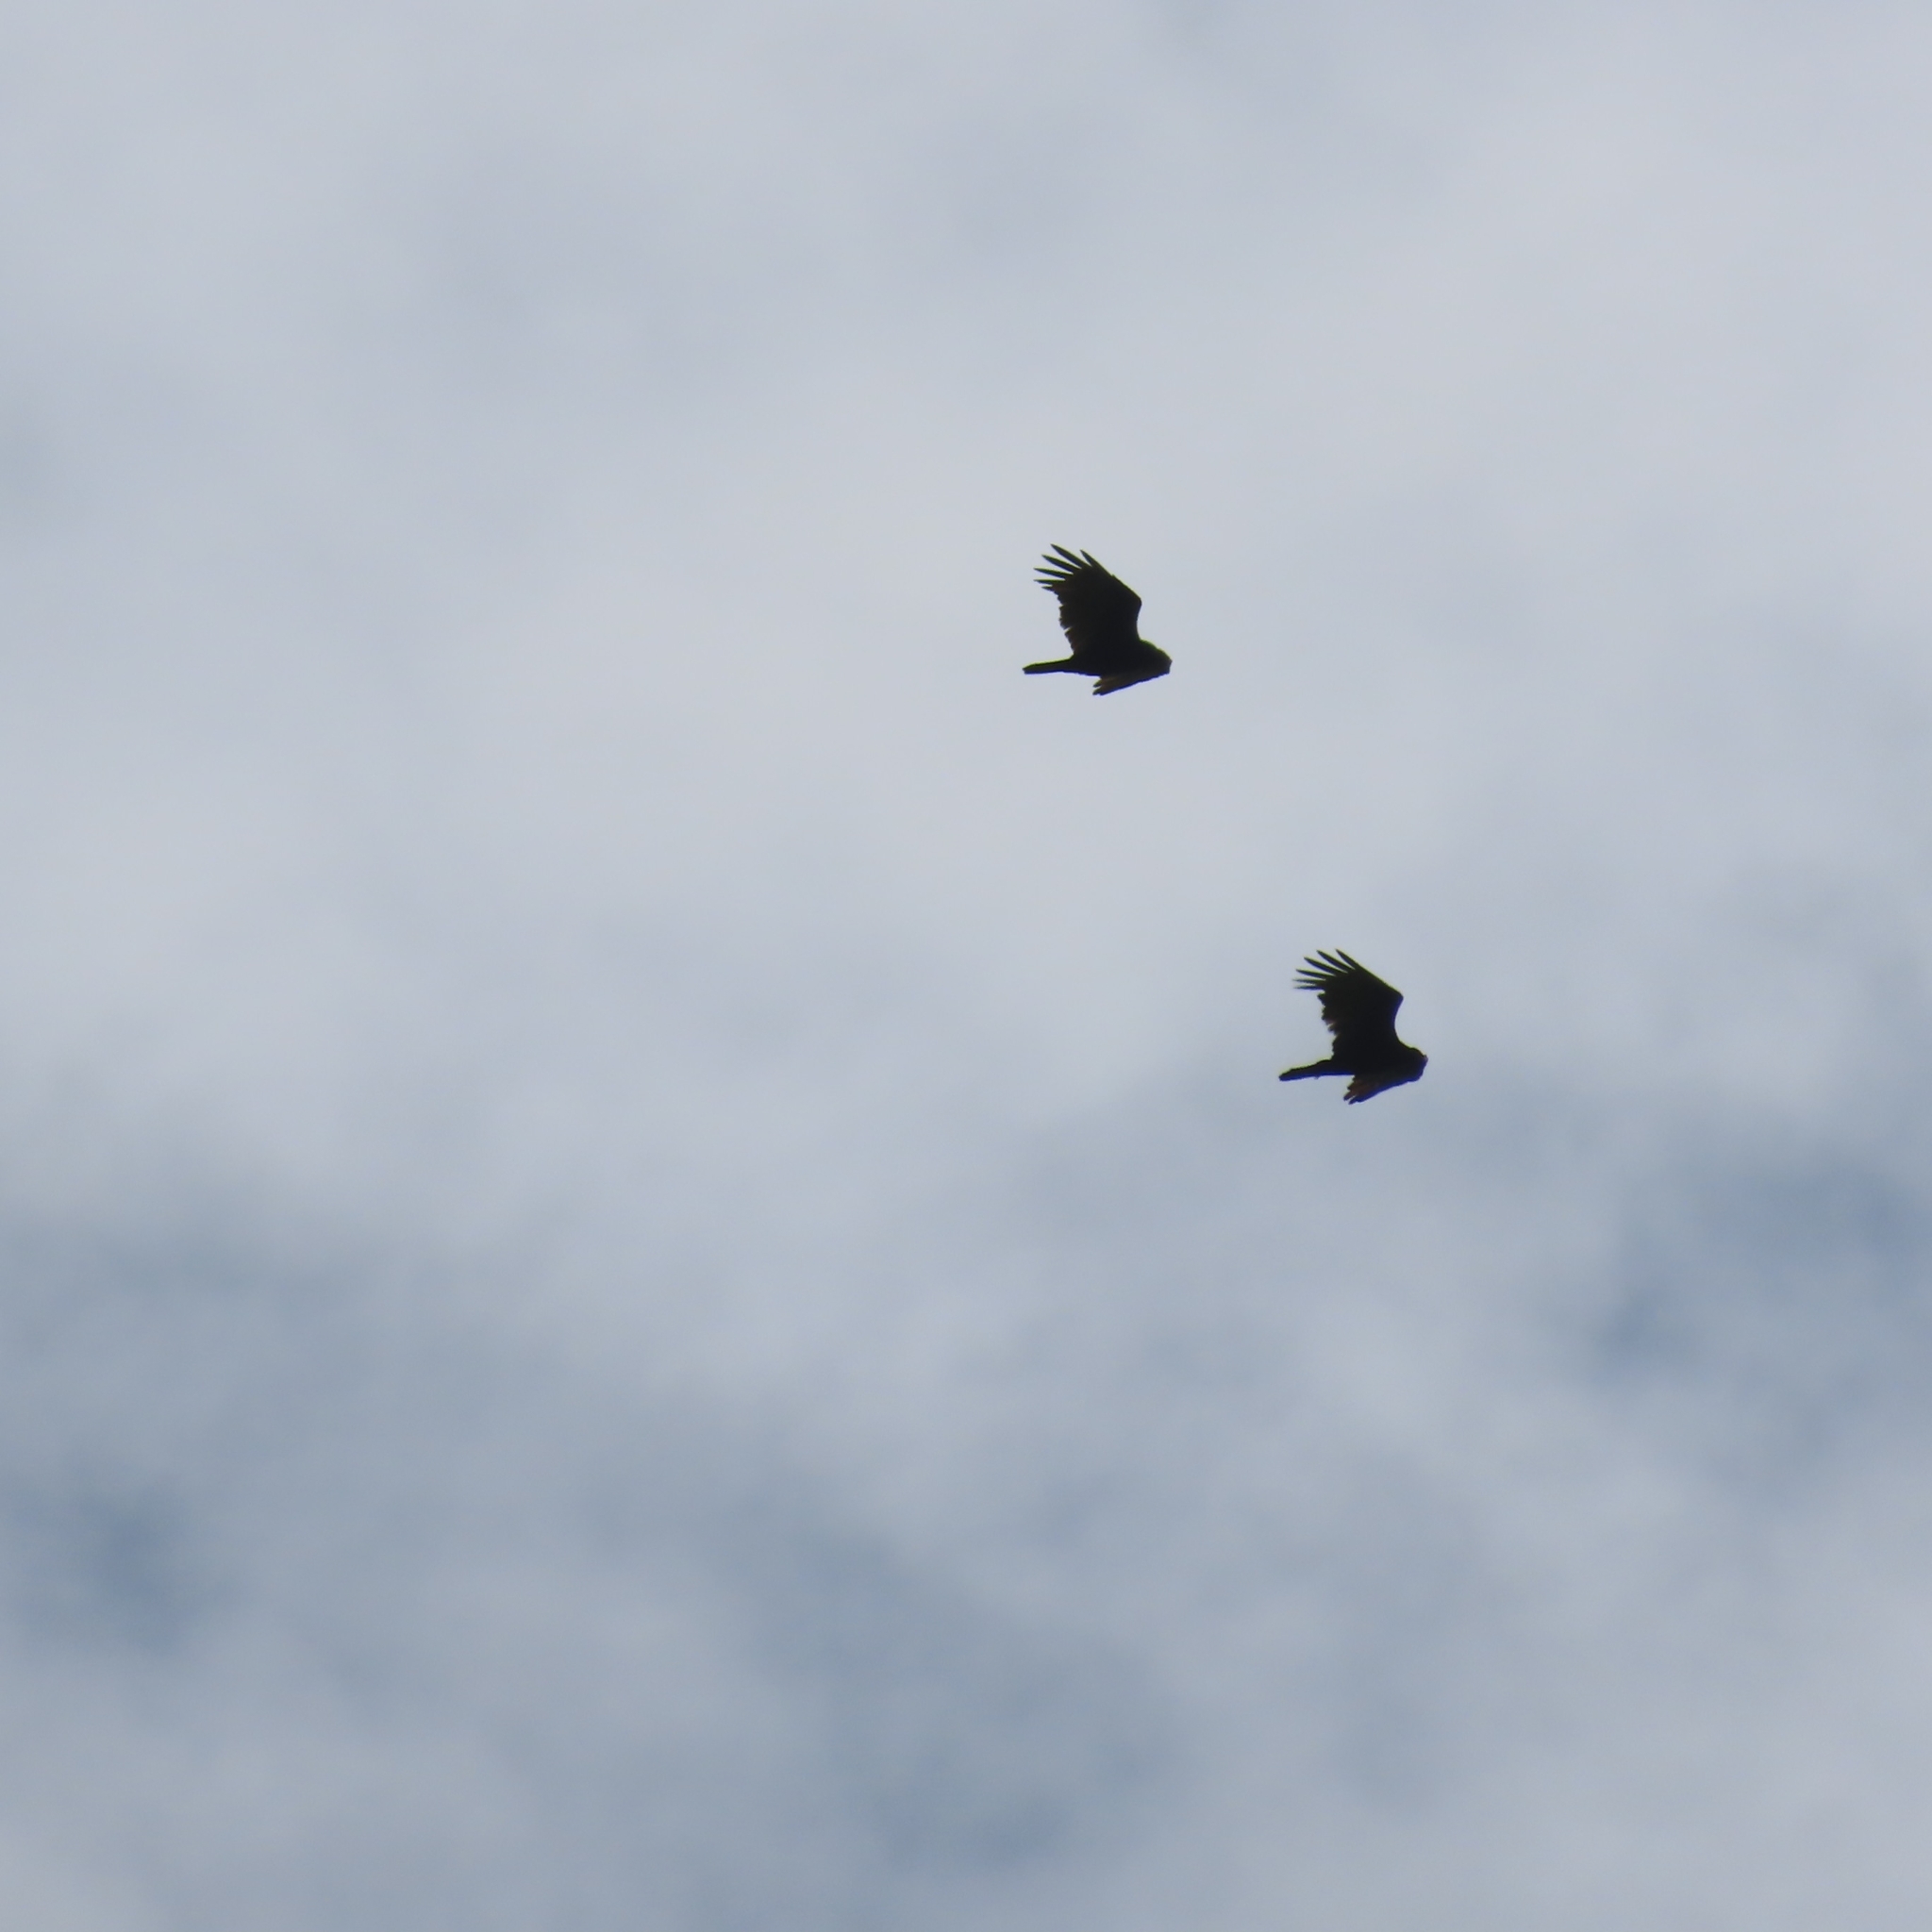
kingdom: Animalia
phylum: Chordata
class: Aves
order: Accipitriformes
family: Cathartidae
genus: Cathartes
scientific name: Cathartes aura
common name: Turkey vulture
